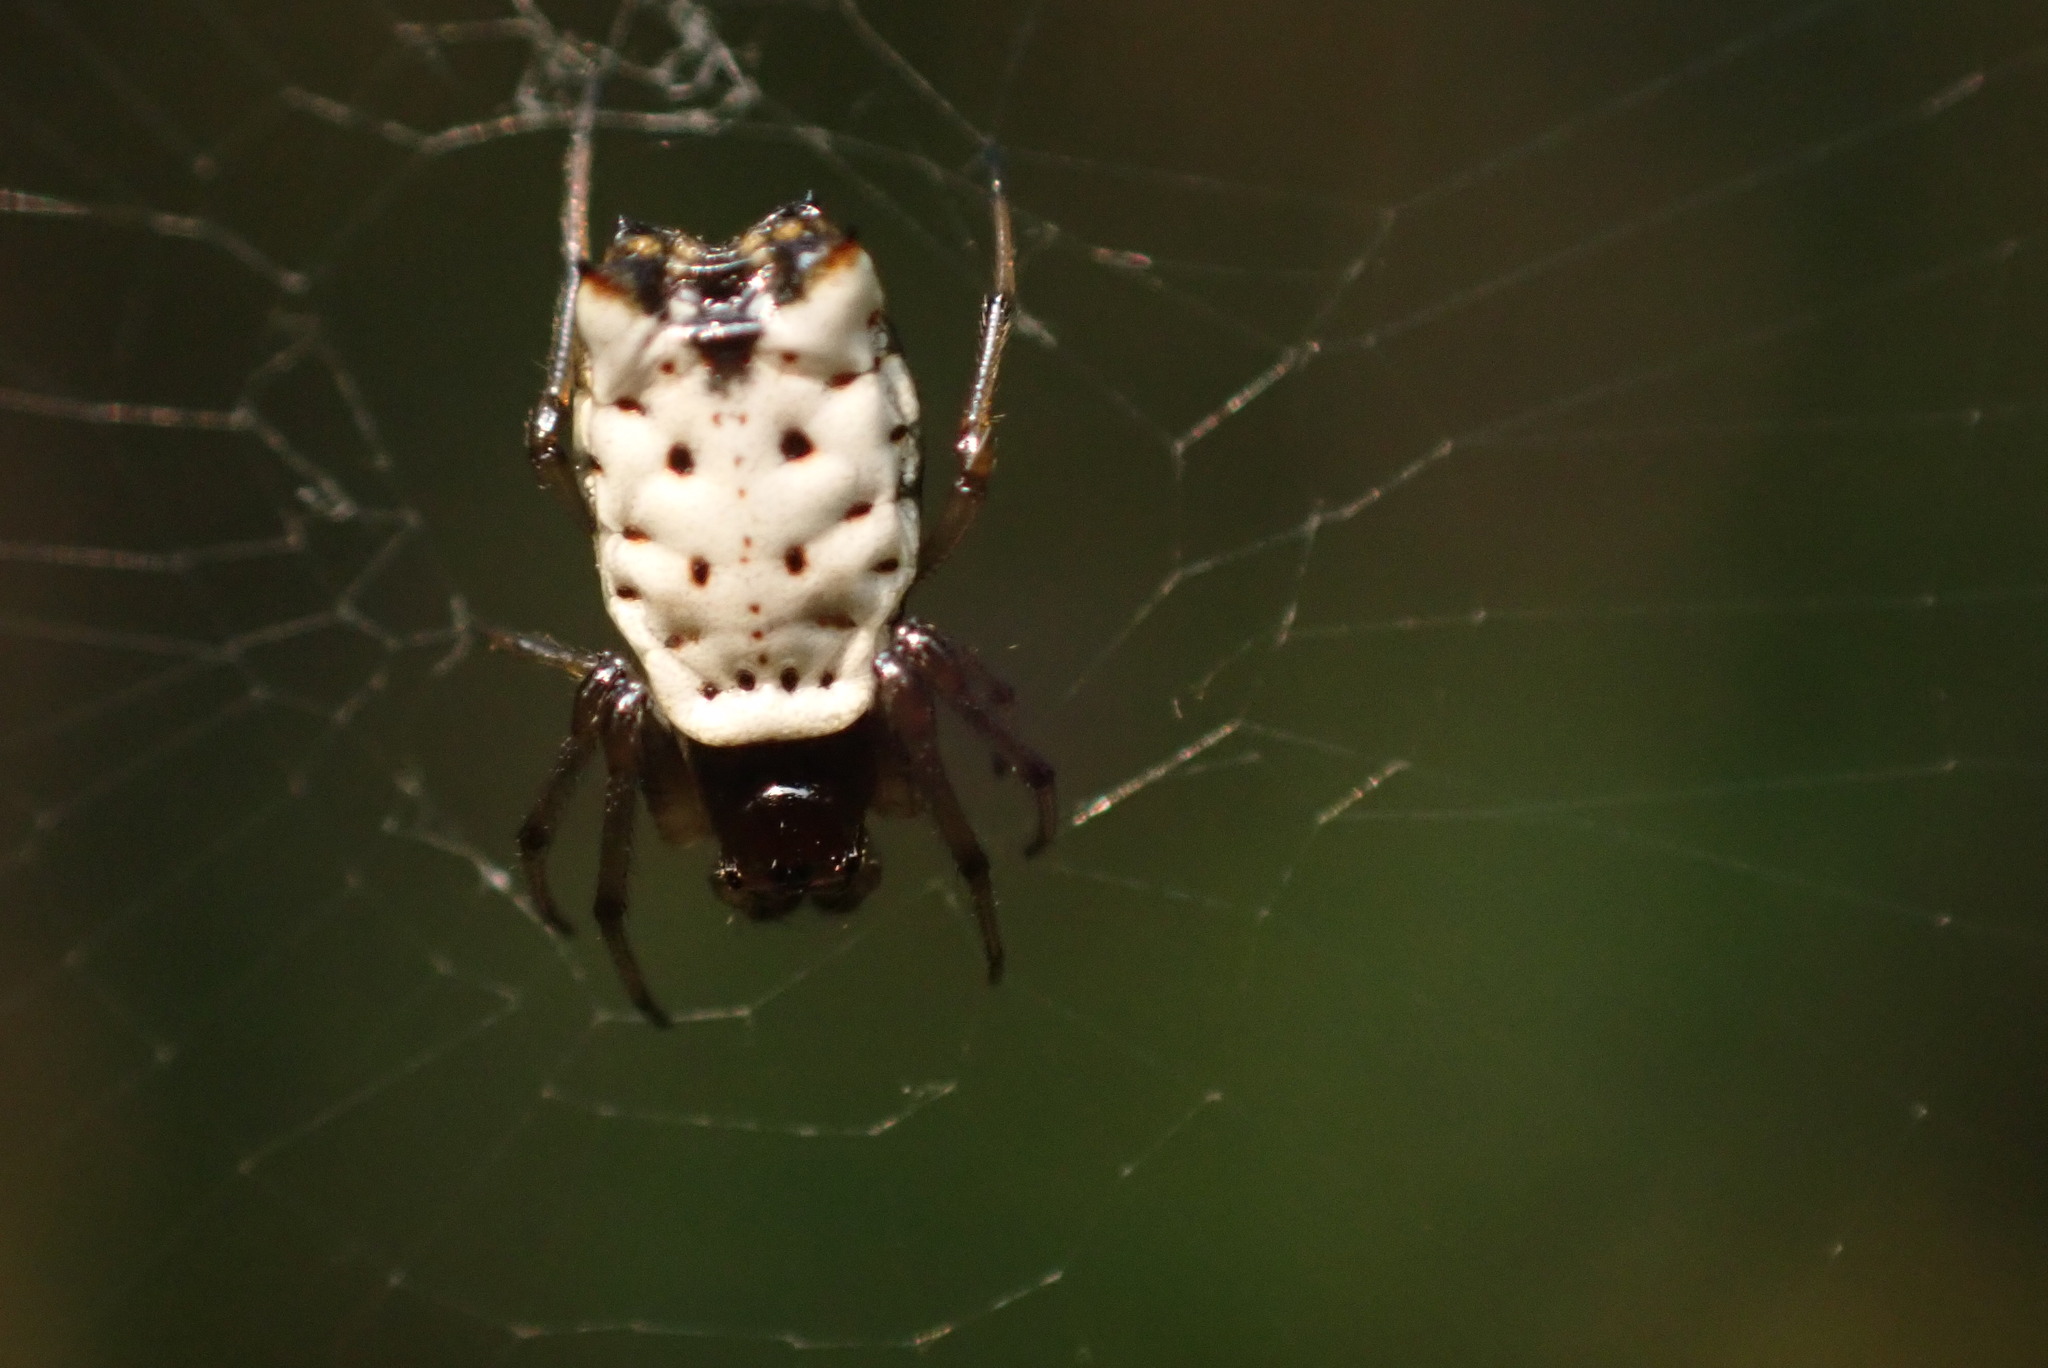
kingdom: Animalia
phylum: Arthropoda
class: Arachnida
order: Araneae
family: Araneidae
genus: Micrathena
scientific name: Micrathena mitrata
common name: Orb weavers
